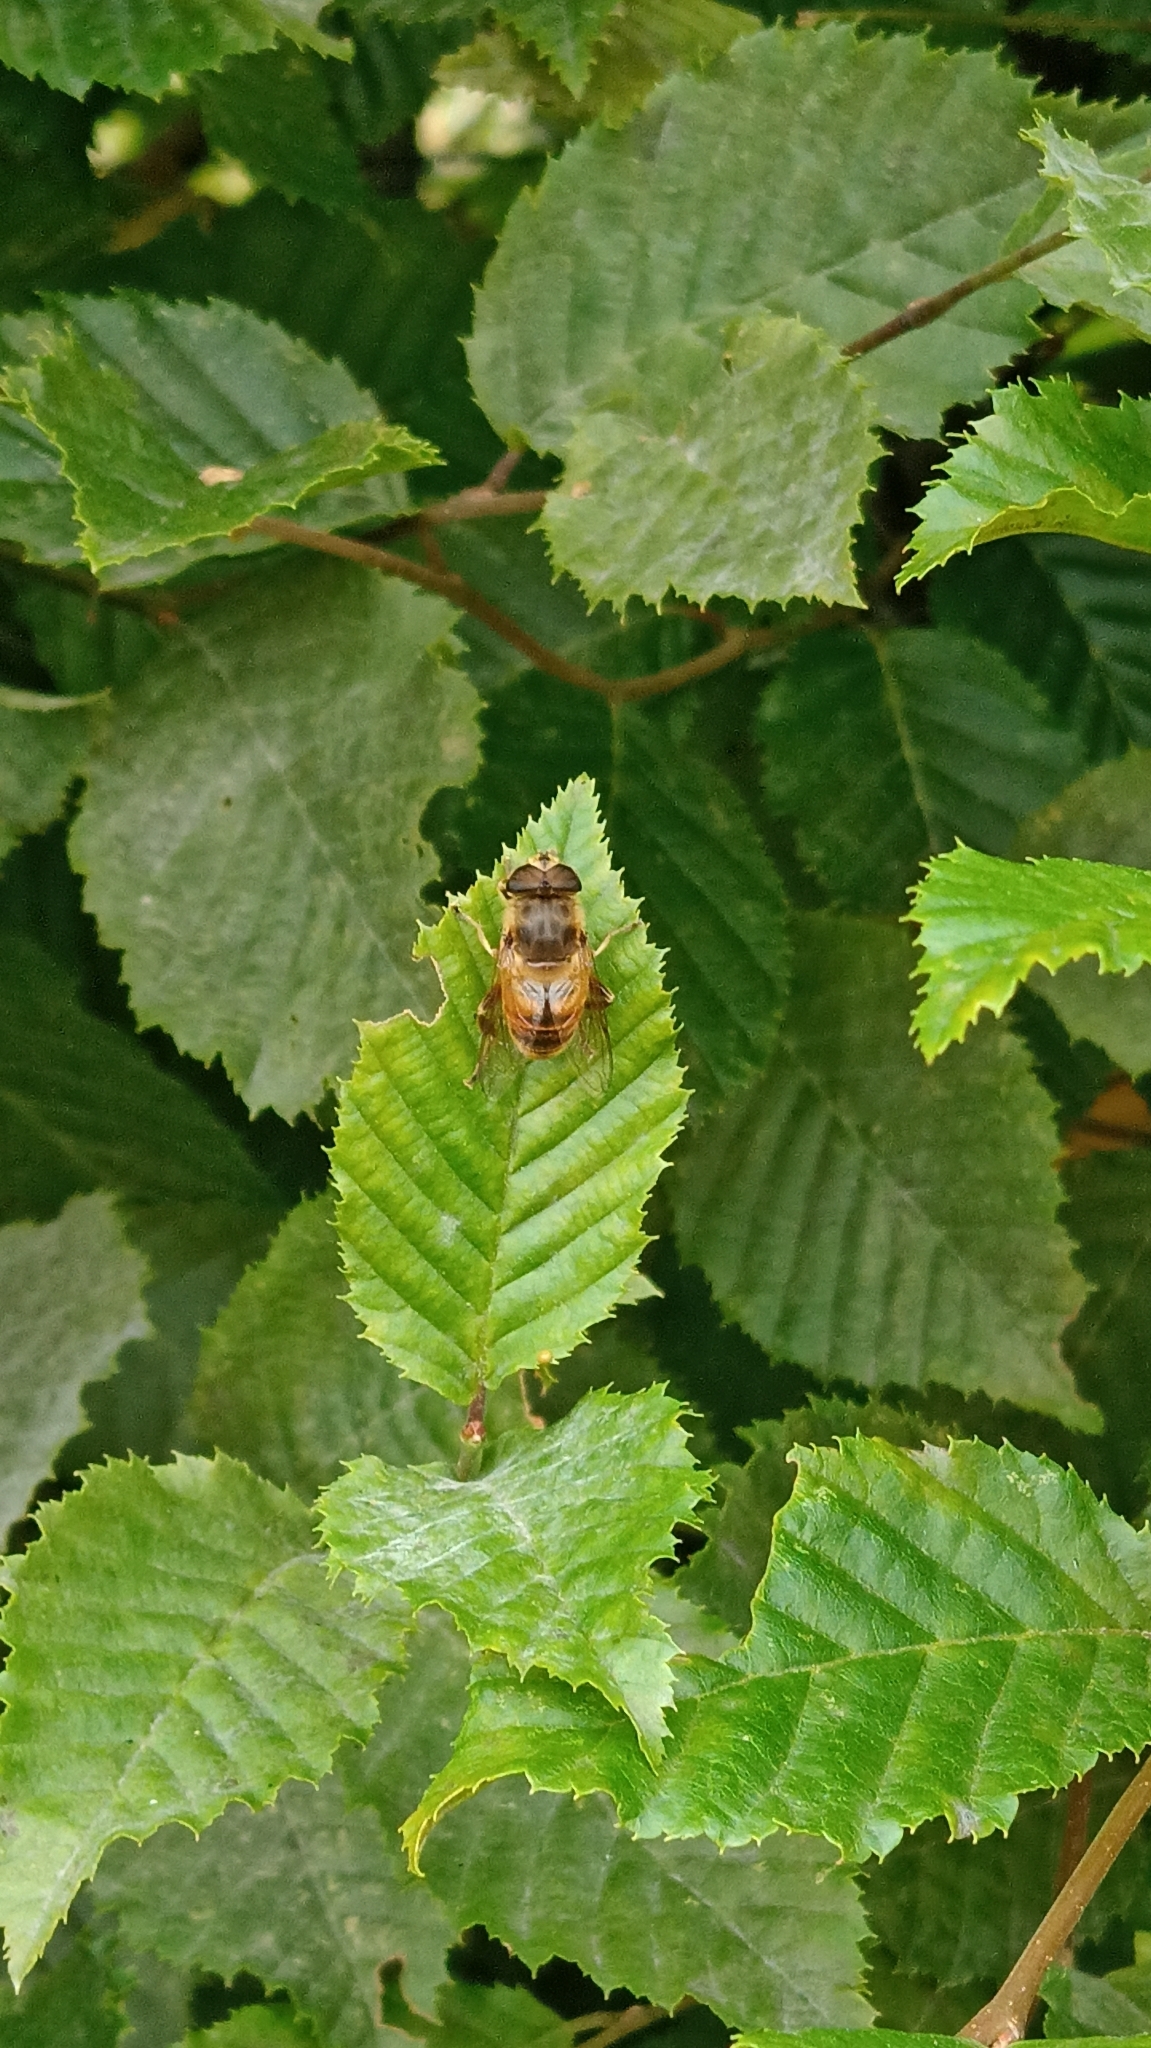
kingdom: Animalia
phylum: Arthropoda
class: Insecta
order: Diptera
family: Syrphidae
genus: Eristalis
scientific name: Eristalis tenax
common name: Drone fly
